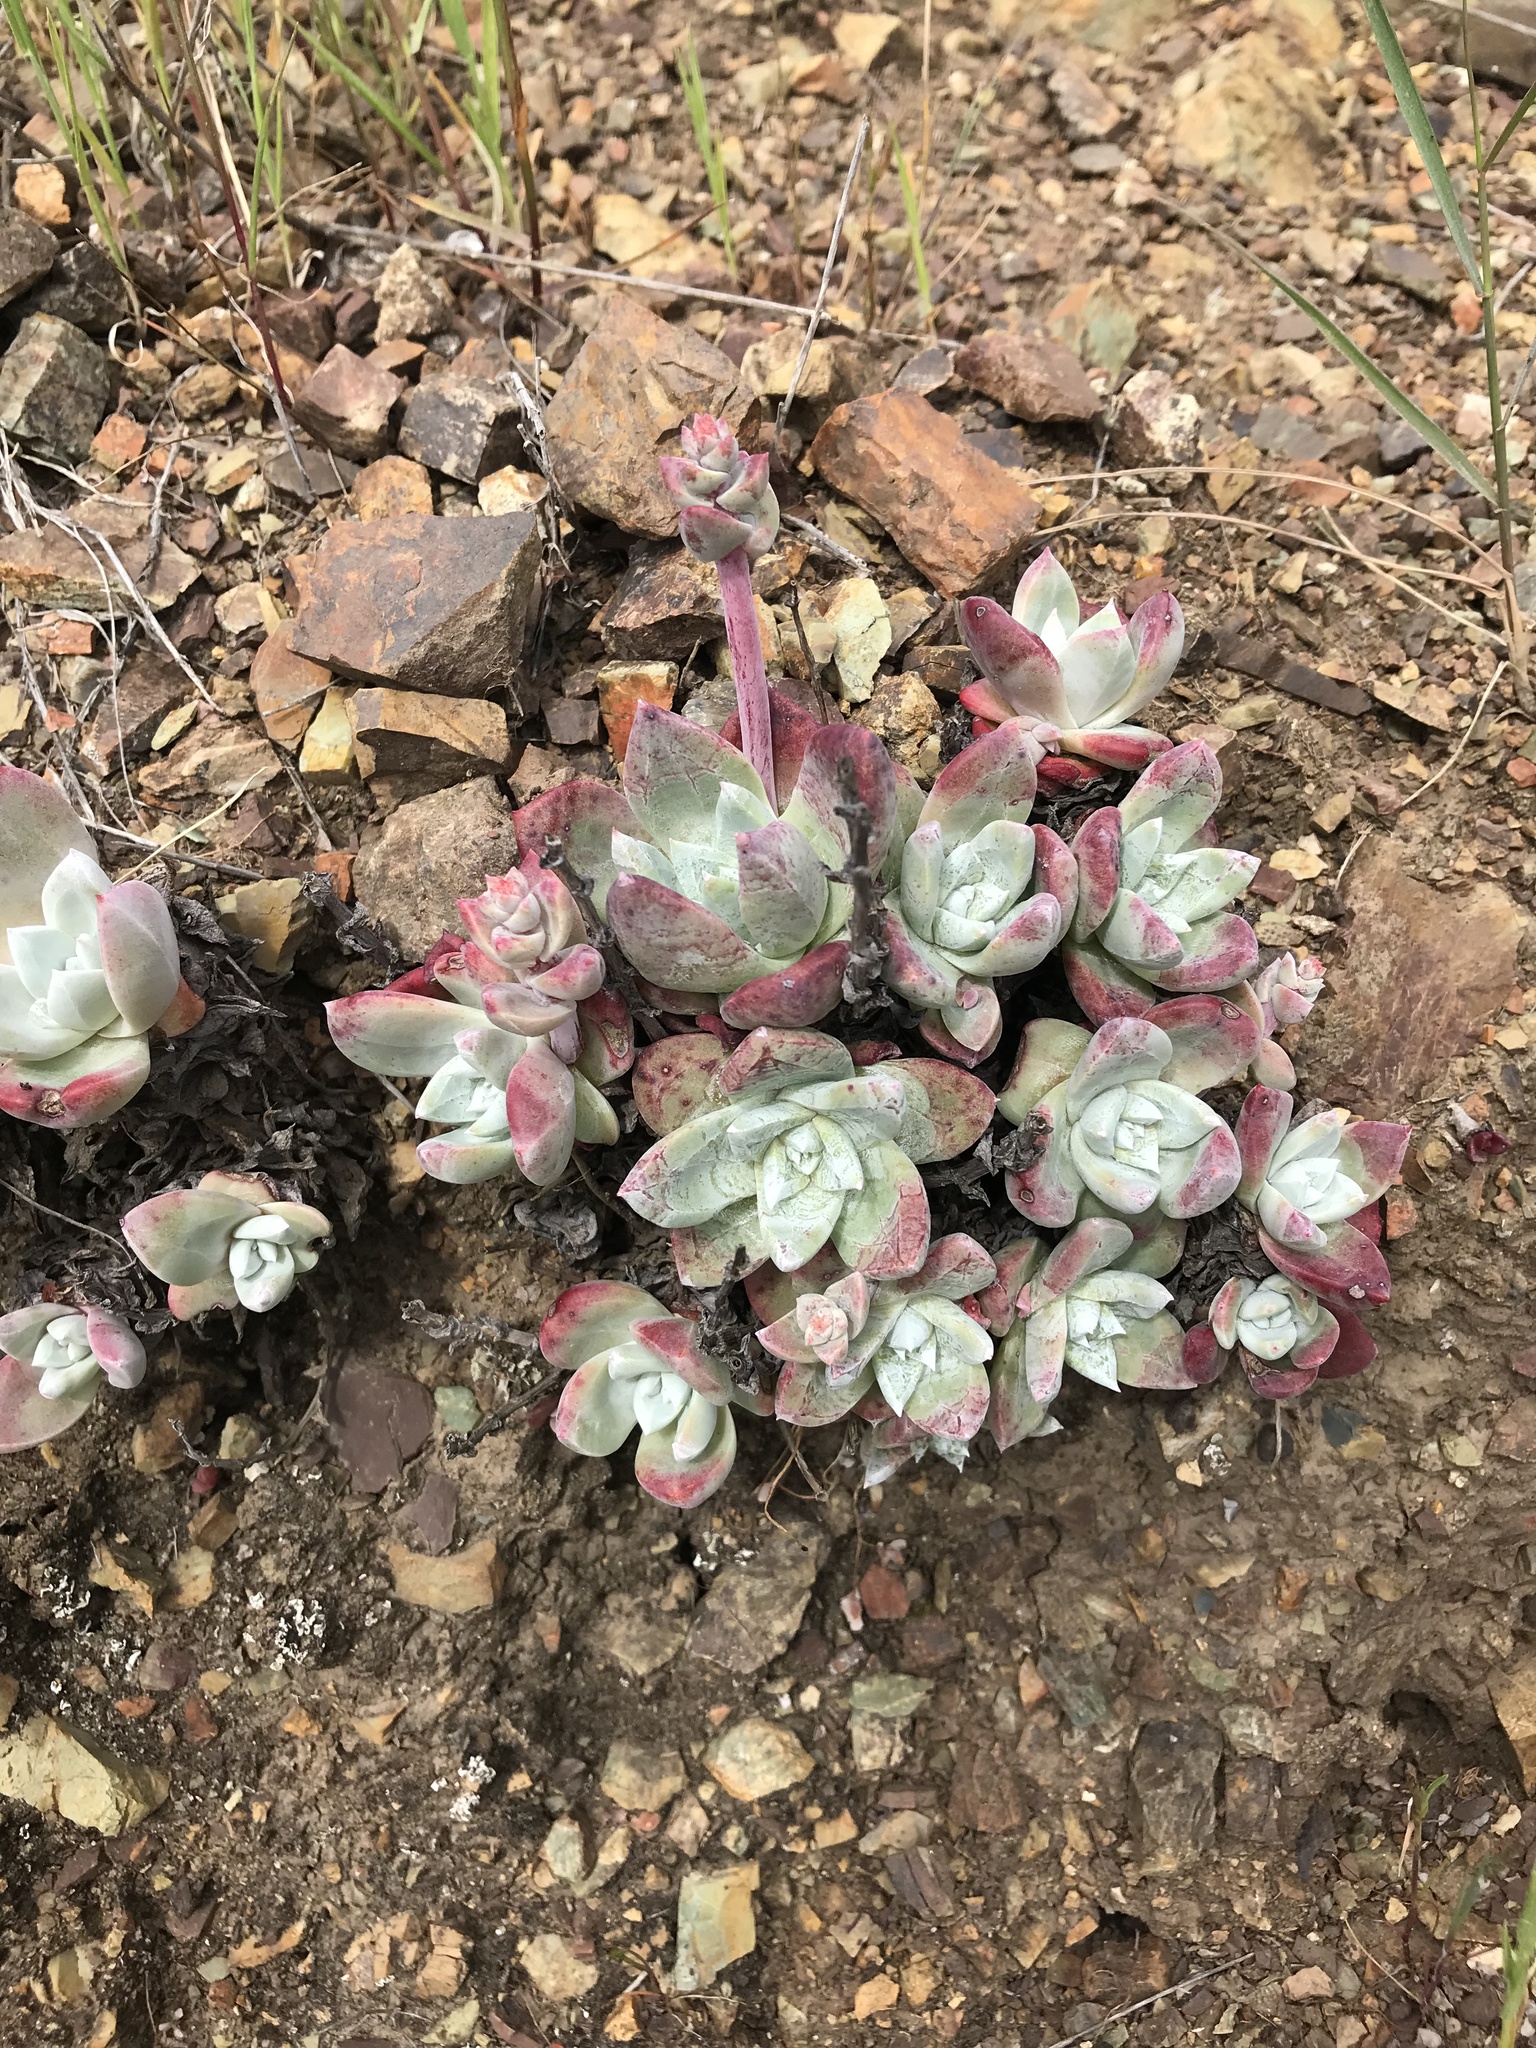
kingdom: Plantae
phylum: Tracheophyta
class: Magnoliopsida
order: Saxifragales
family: Crassulaceae
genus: Dudleya
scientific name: Dudleya farinosa
